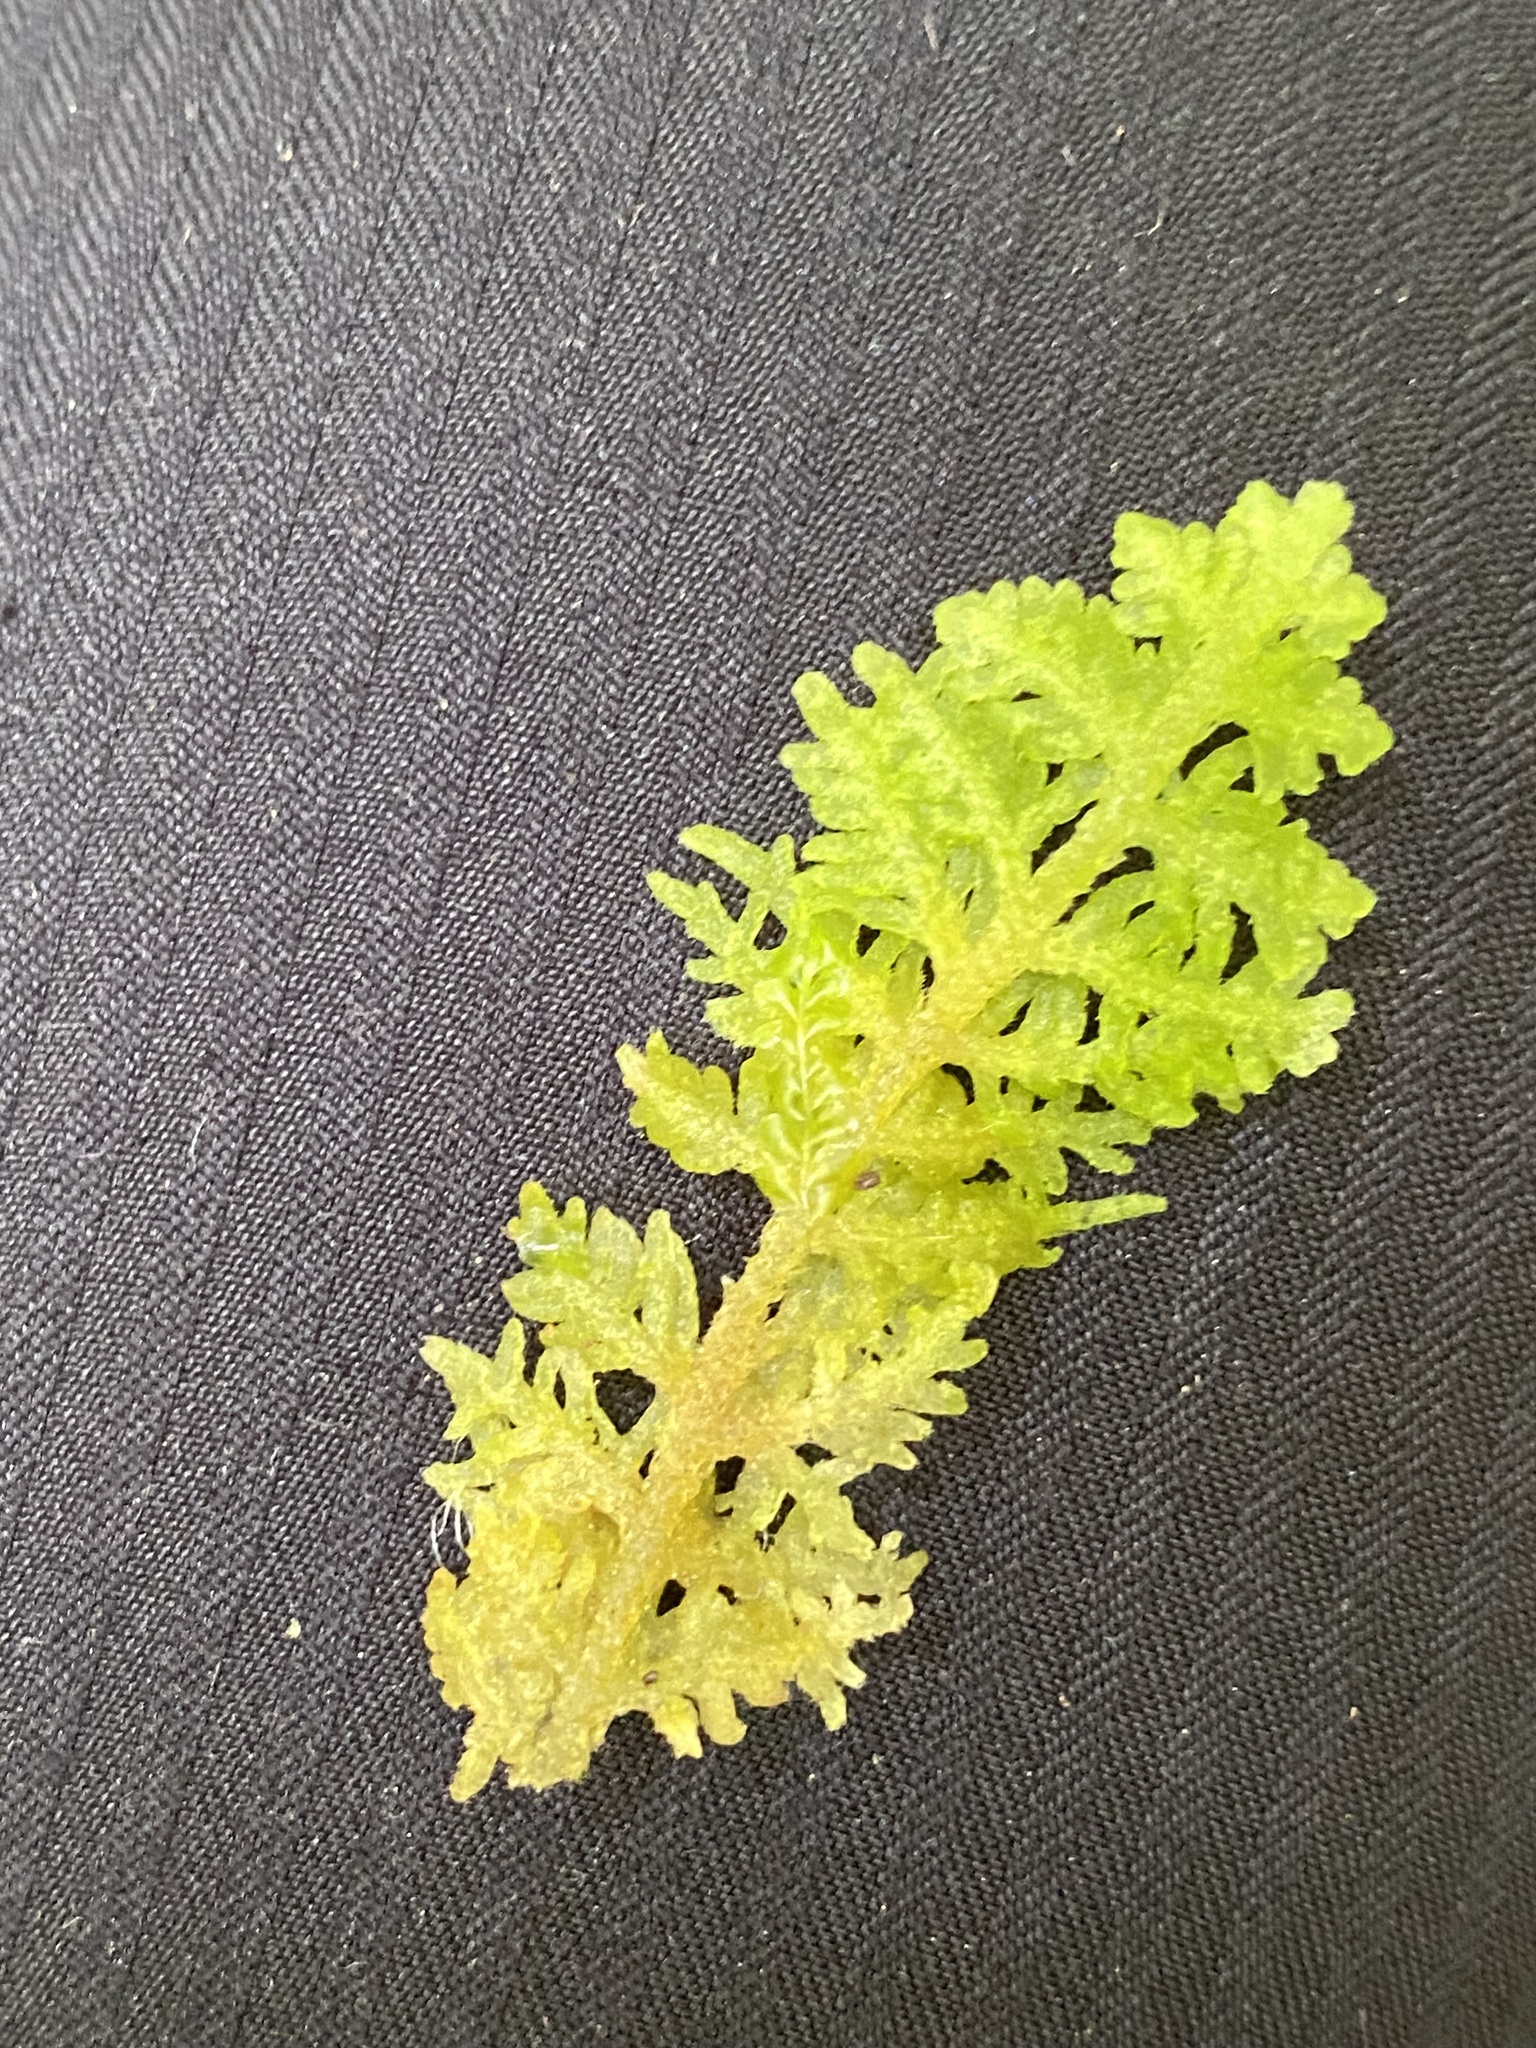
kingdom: Plantae
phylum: Marchantiophyta
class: Jungermanniopsida
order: Jungermanniales
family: Trichocoleaceae
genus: Trichocolea
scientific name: Trichocolea tomentella
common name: Woolly liverwort
